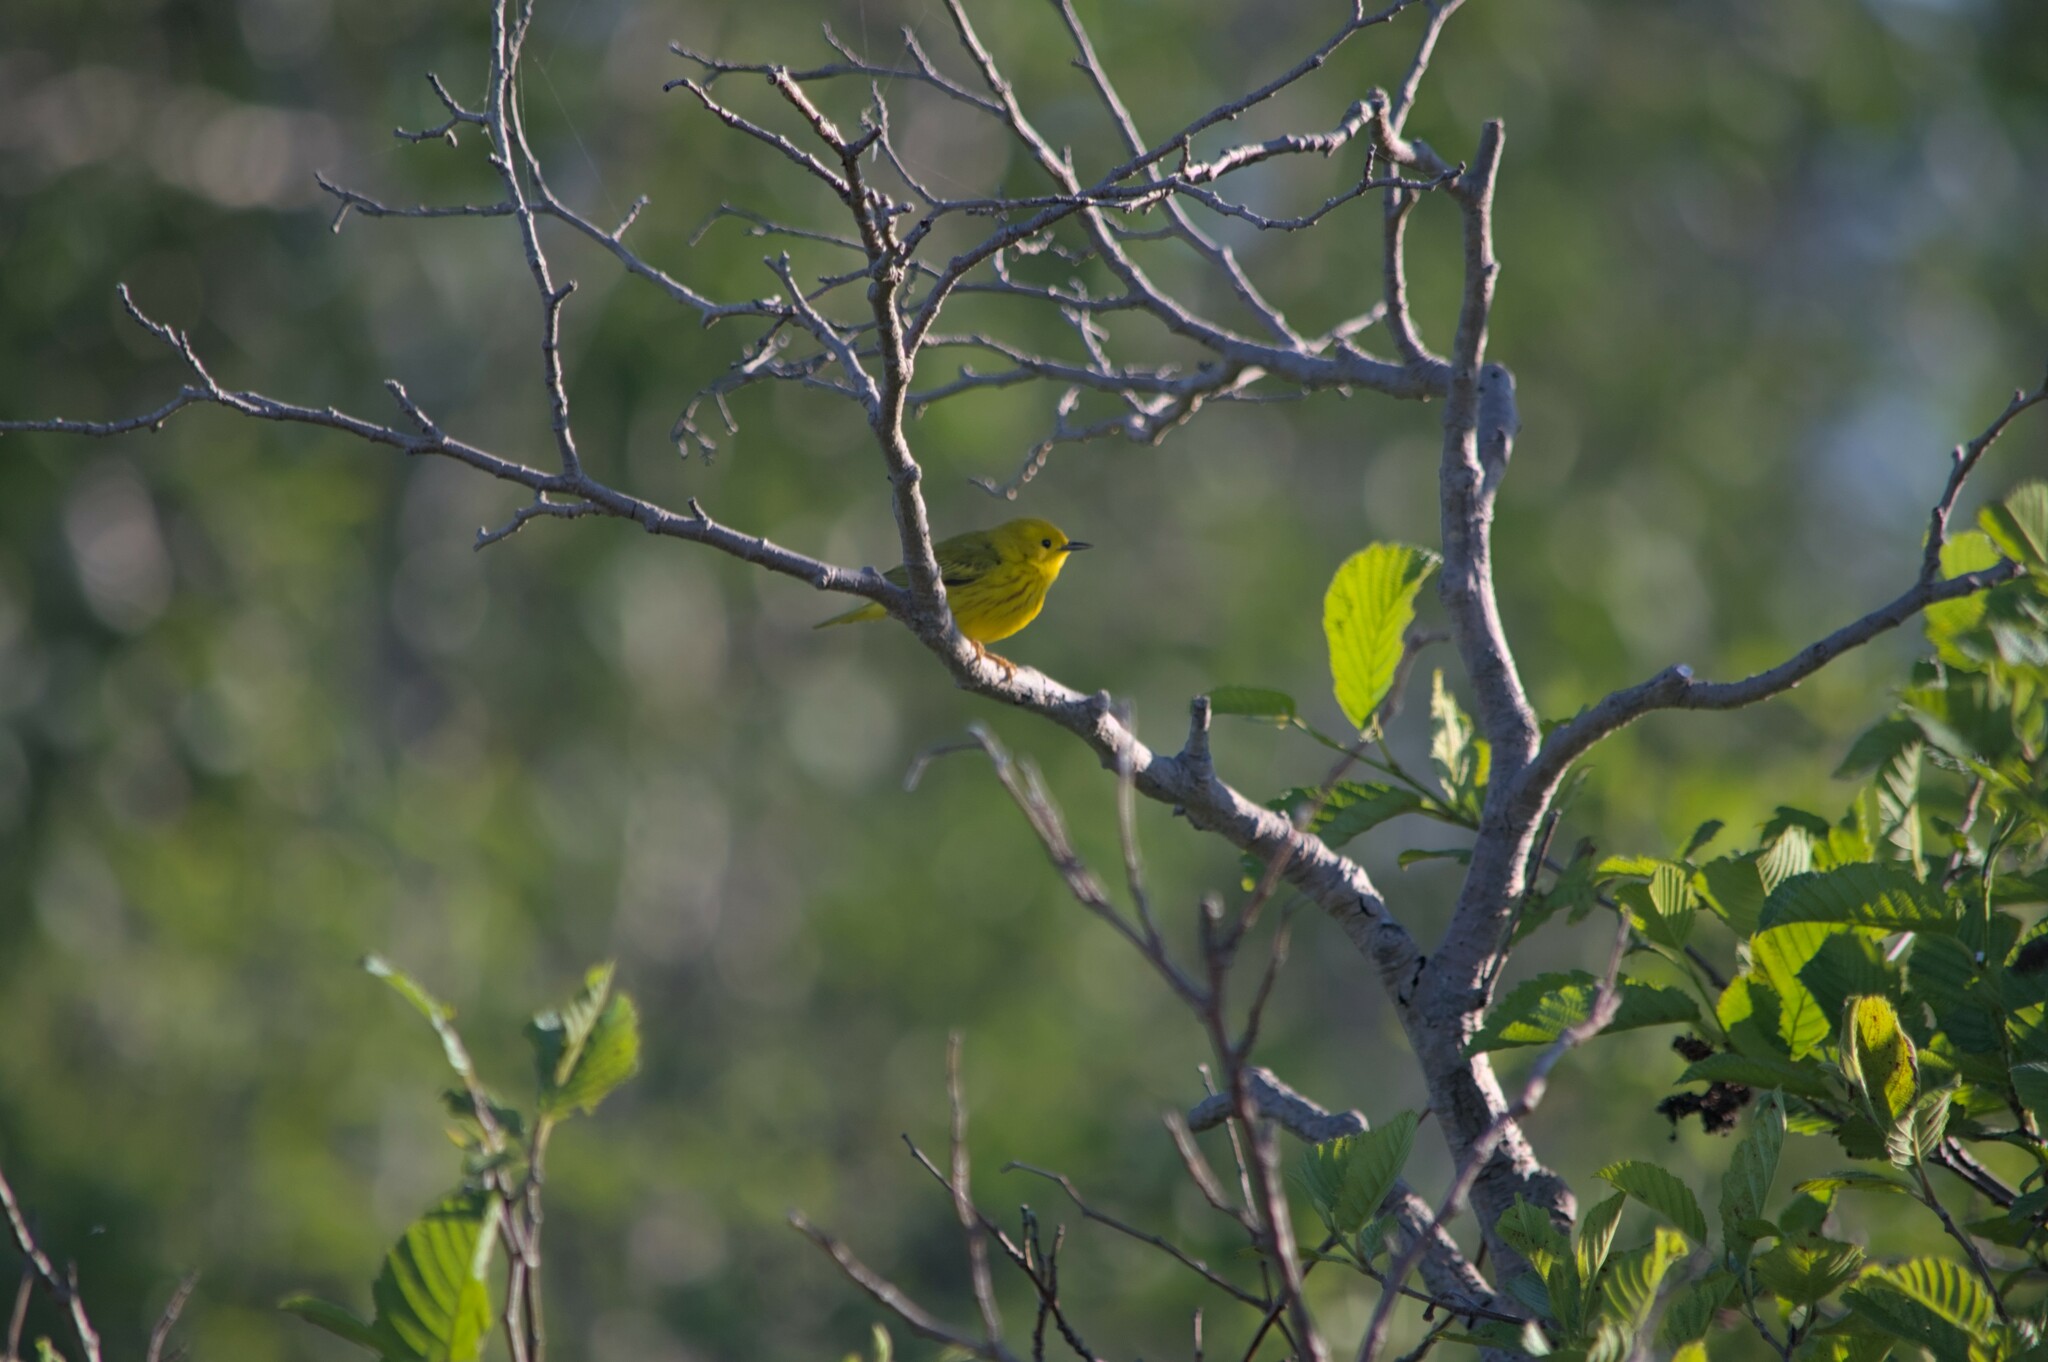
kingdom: Animalia
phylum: Chordata
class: Aves
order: Passeriformes
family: Parulidae
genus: Setophaga
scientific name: Setophaga petechia
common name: Yellow warbler
